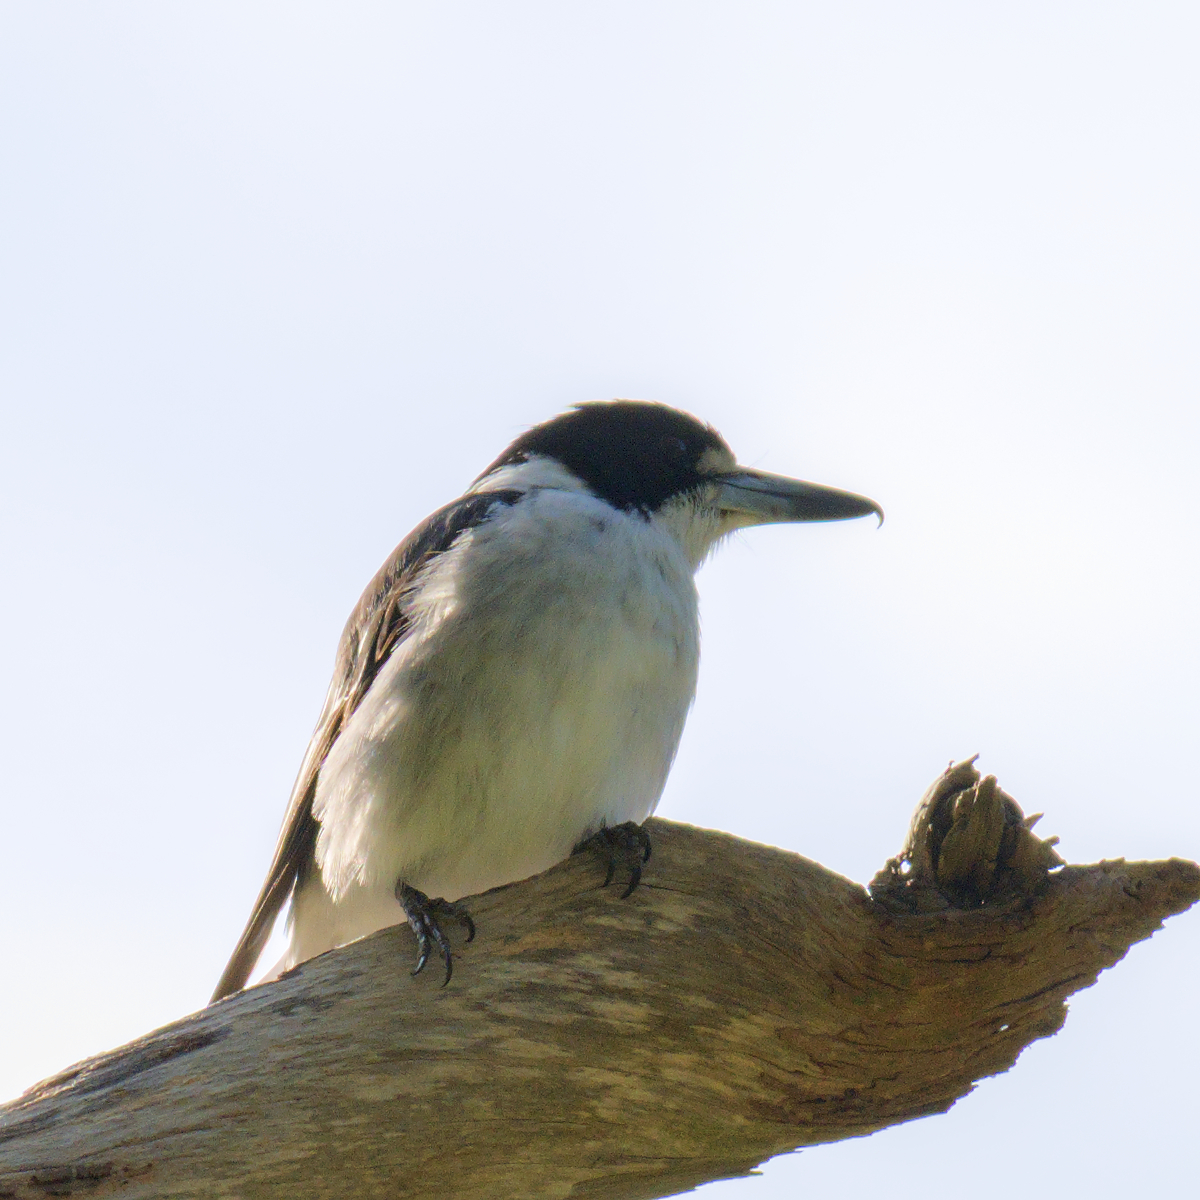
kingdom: Animalia
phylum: Chordata
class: Aves
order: Passeriformes
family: Cracticidae
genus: Cracticus
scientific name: Cracticus torquatus
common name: Grey butcherbird
